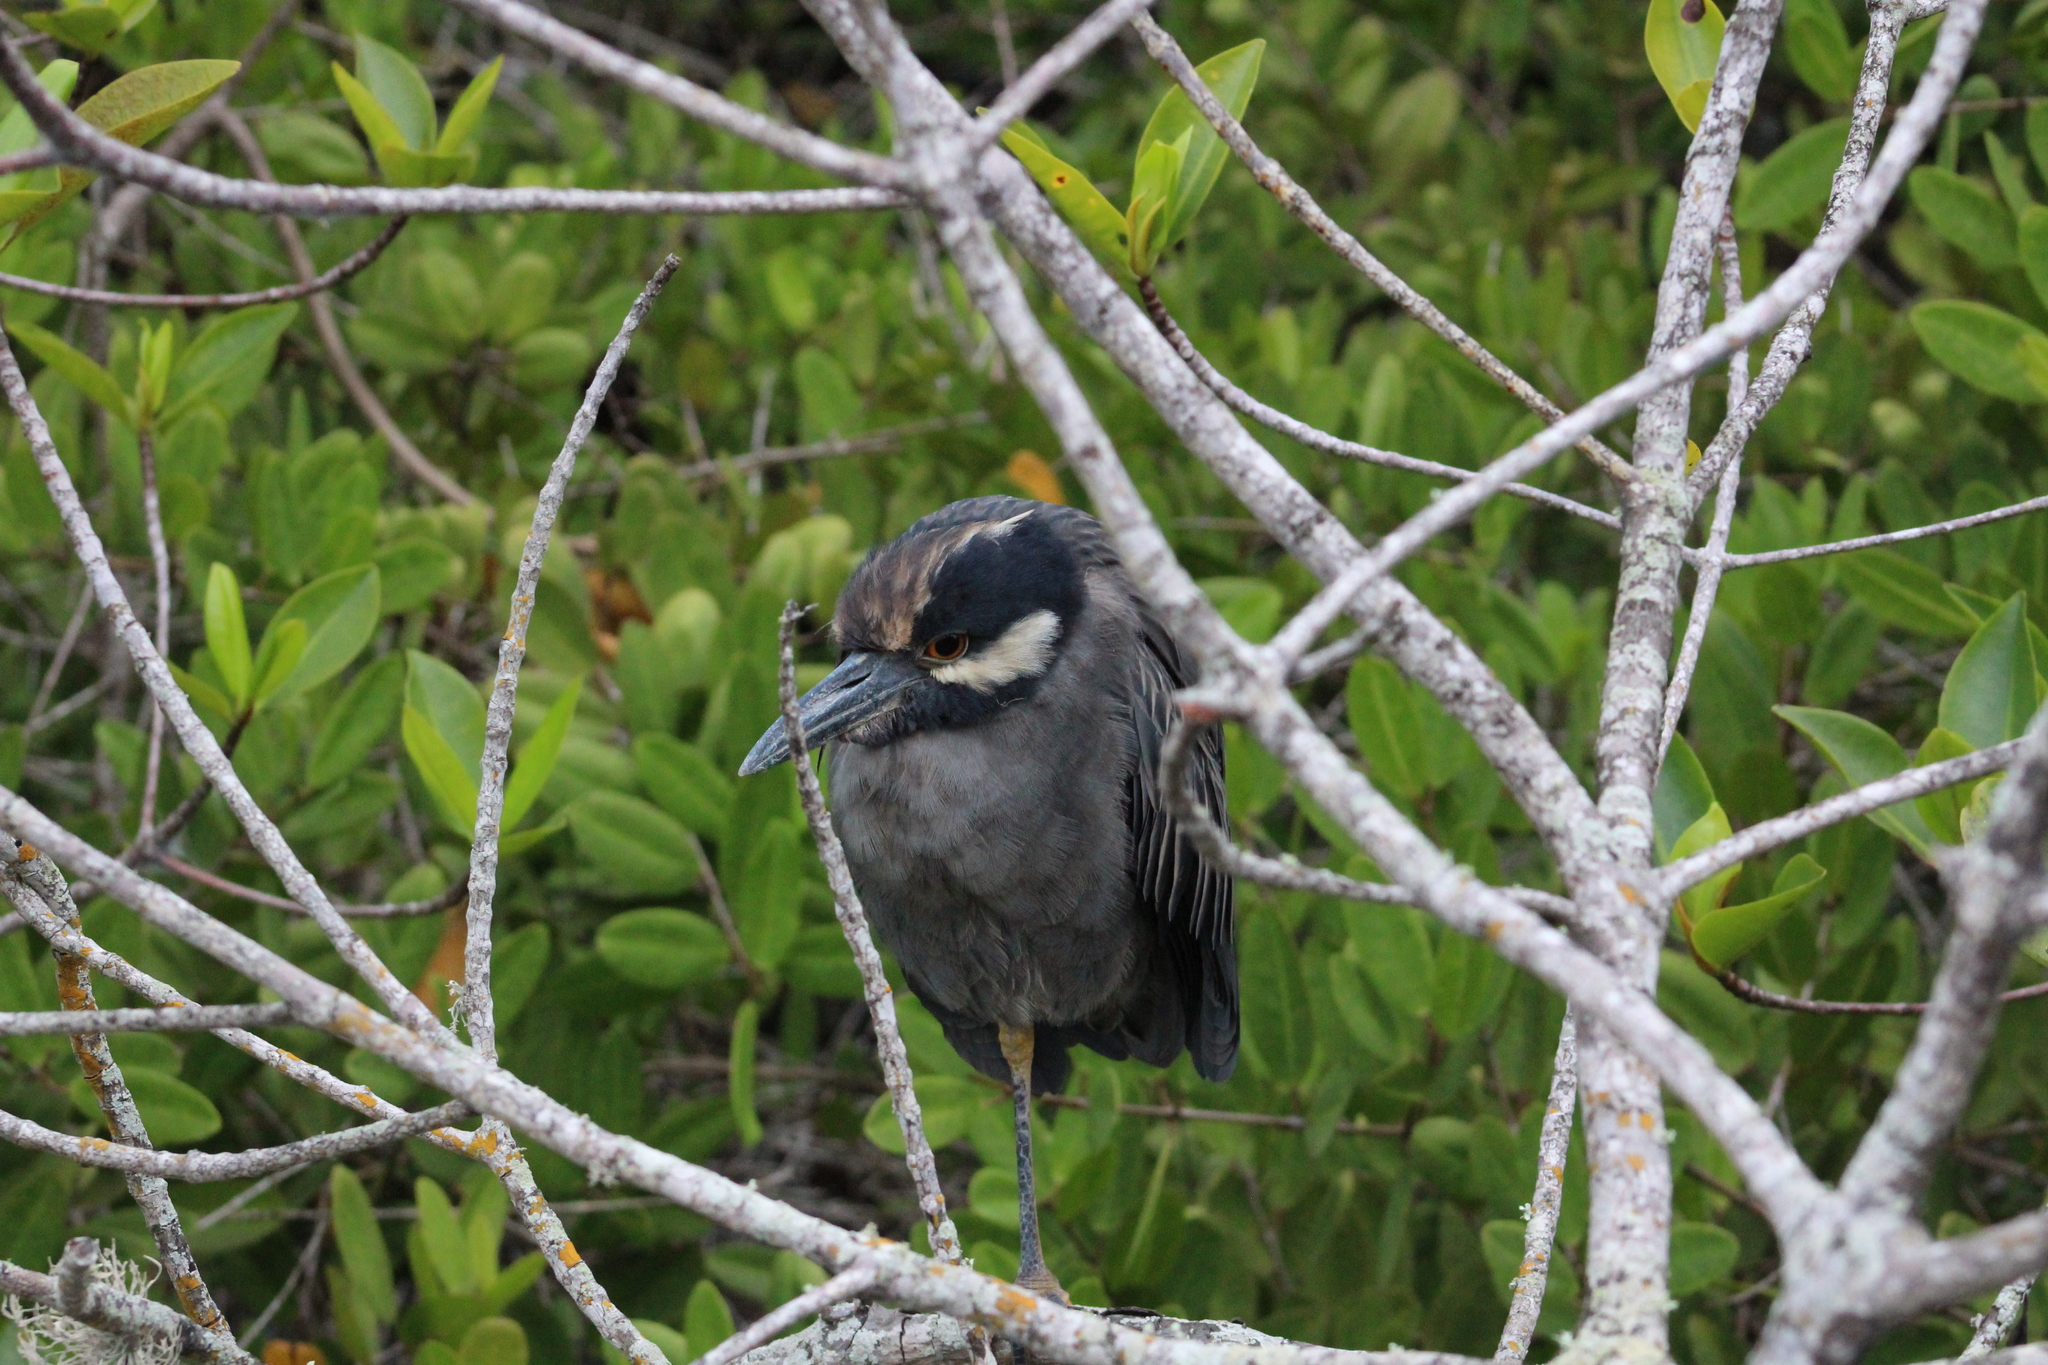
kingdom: Animalia
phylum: Chordata
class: Aves
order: Pelecaniformes
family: Ardeidae
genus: Nyctanassa
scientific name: Nyctanassa violacea
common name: Yellow-crowned night heron
